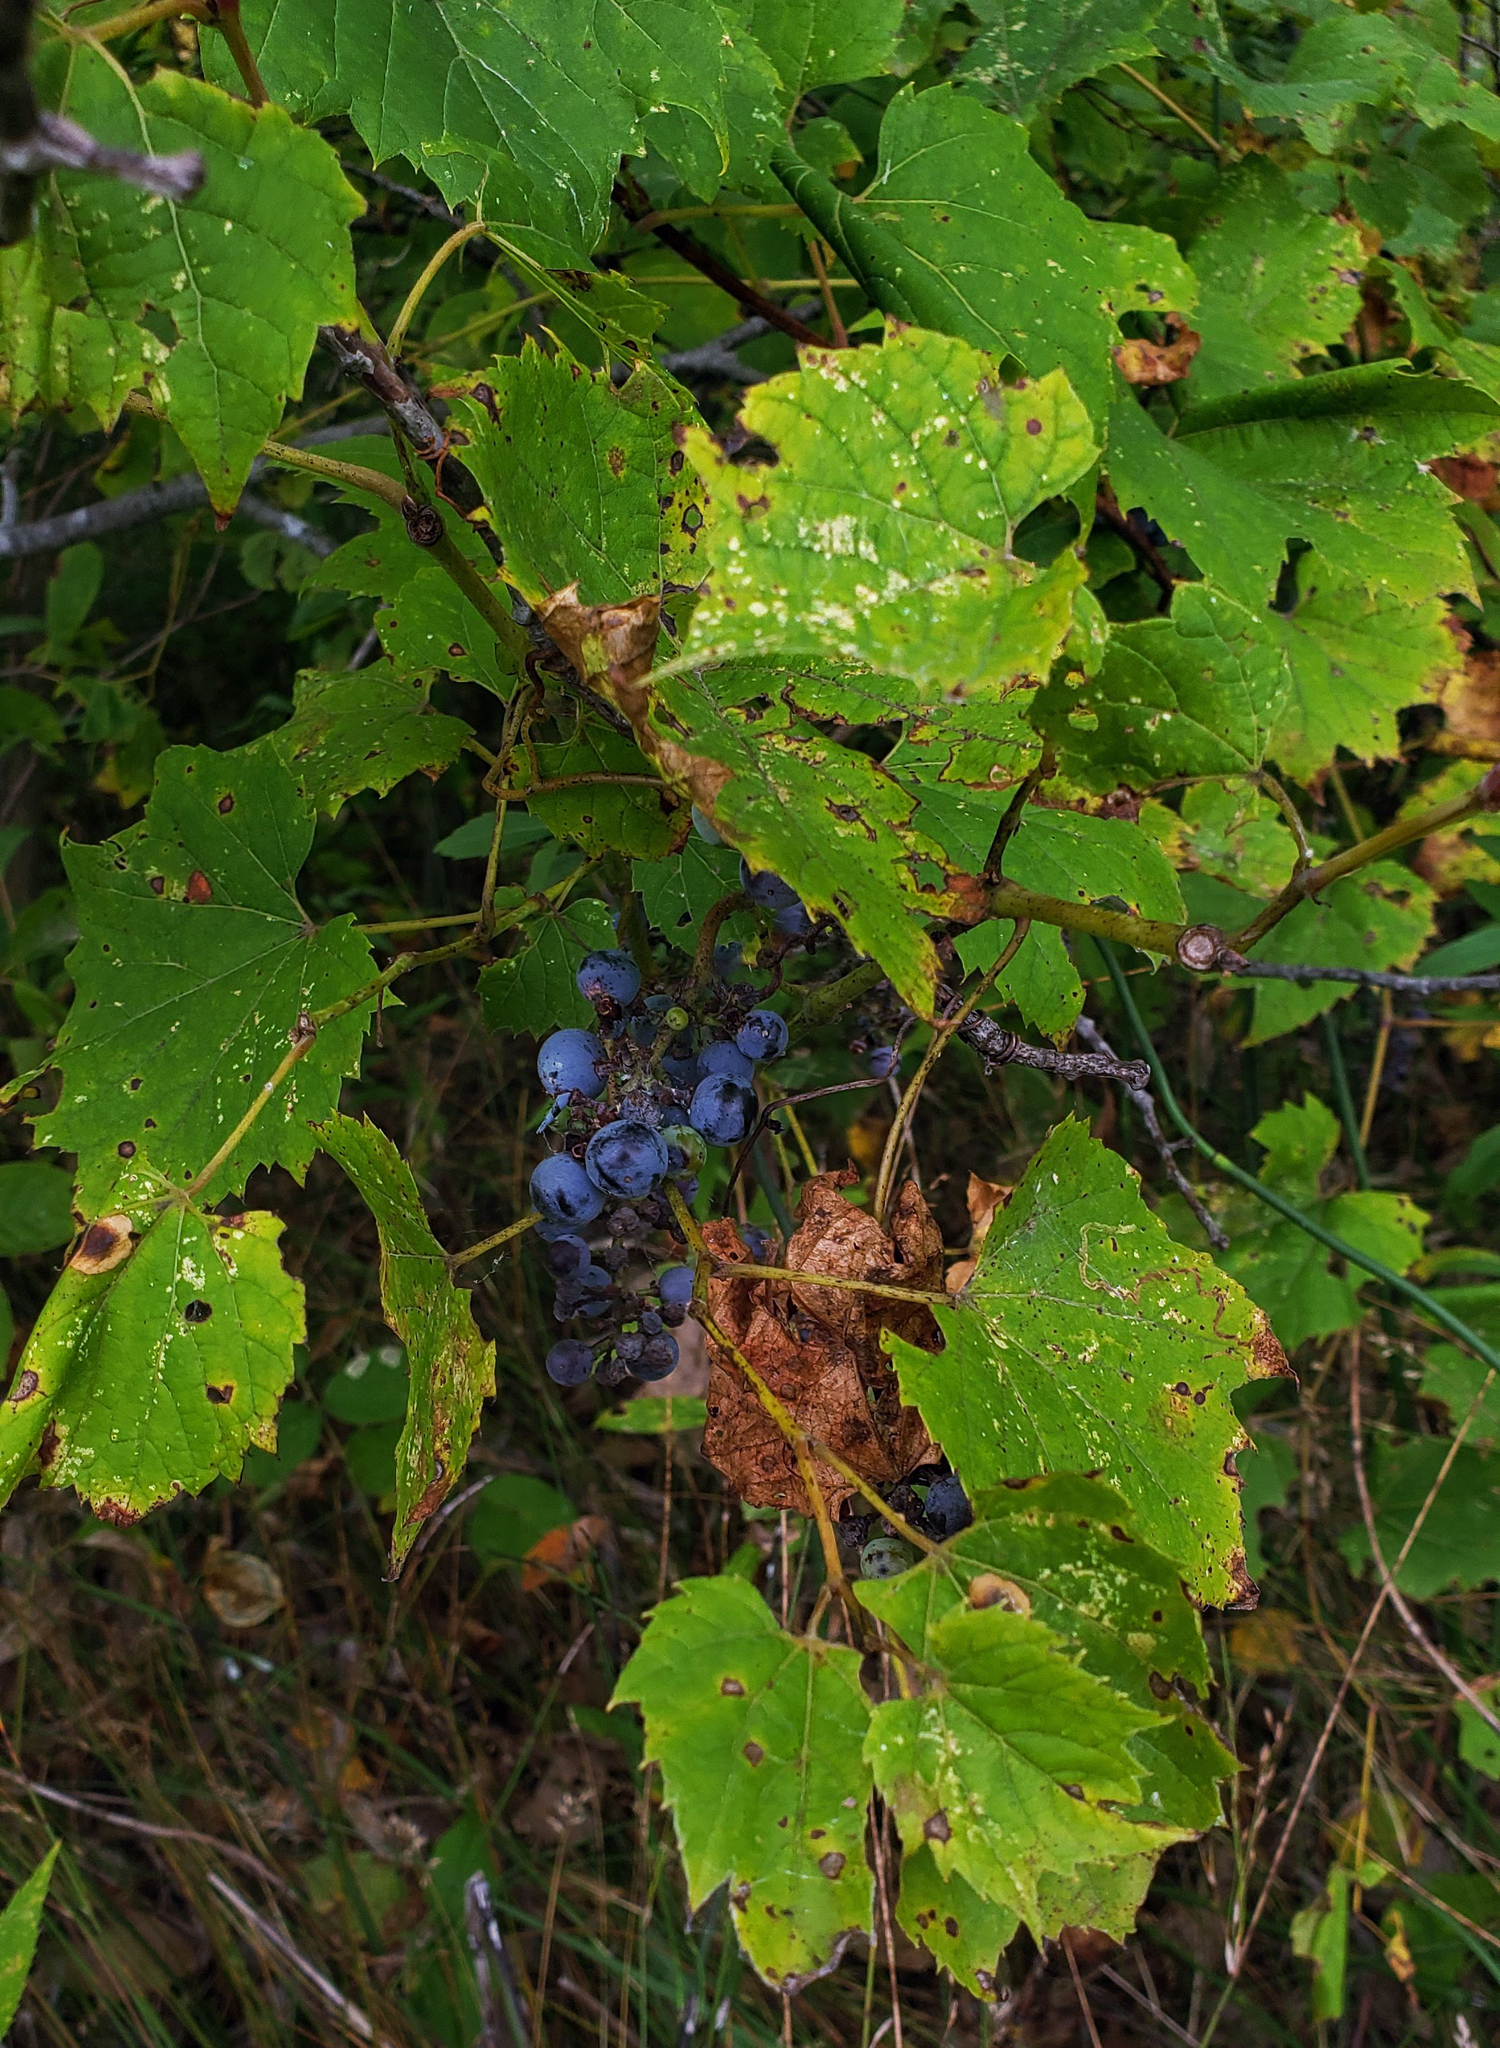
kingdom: Plantae
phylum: Tracheophyta
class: Magnoliopsida
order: Vitales
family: Vitaceae
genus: Vitis
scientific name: Vitis riparia
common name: Frost grape
